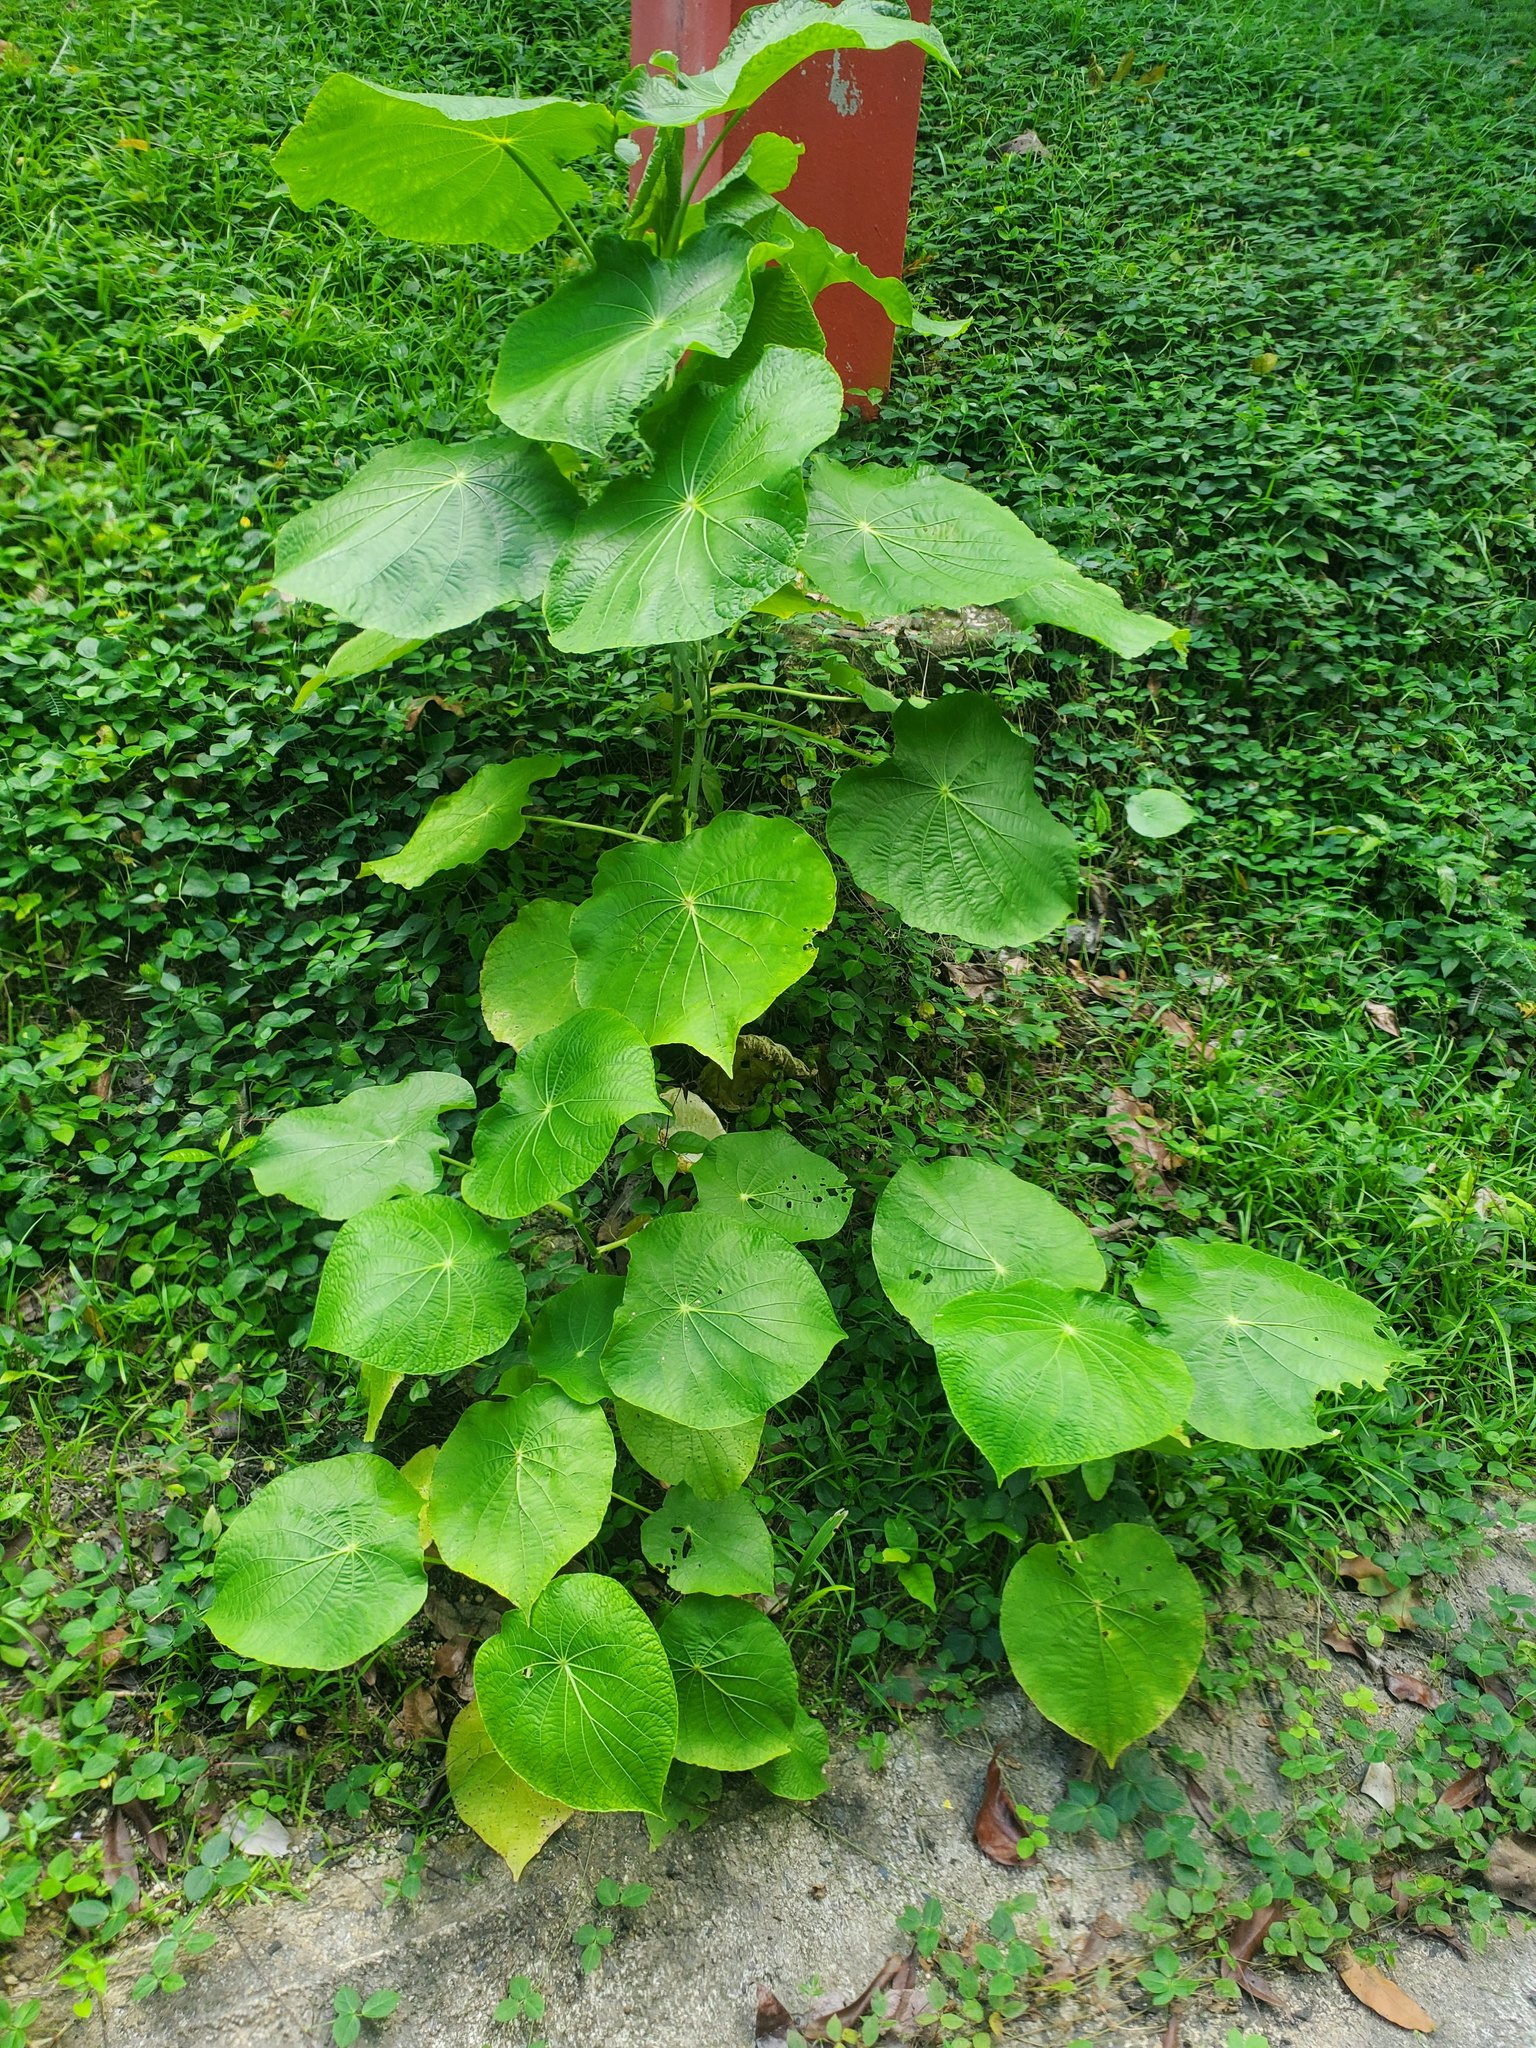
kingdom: Plantae
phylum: Tracheophyta
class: Magnoliopsida
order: Piperales
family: Piperaceae
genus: Piper
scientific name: Piper peltatum
